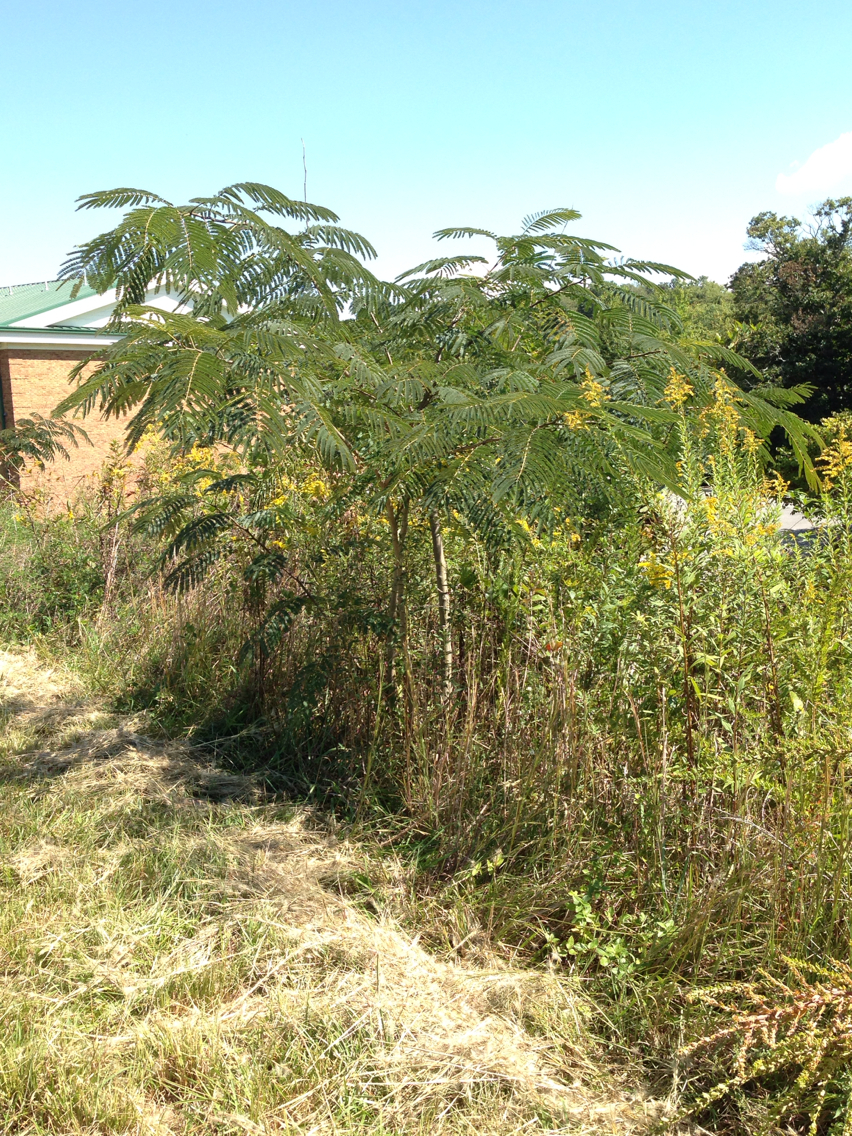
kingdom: Plantae
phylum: Tracheophyta
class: Magnoliopsida
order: Fabales
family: Fabaceae
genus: Albizia
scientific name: Albizia julibrissin
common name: Silktree
